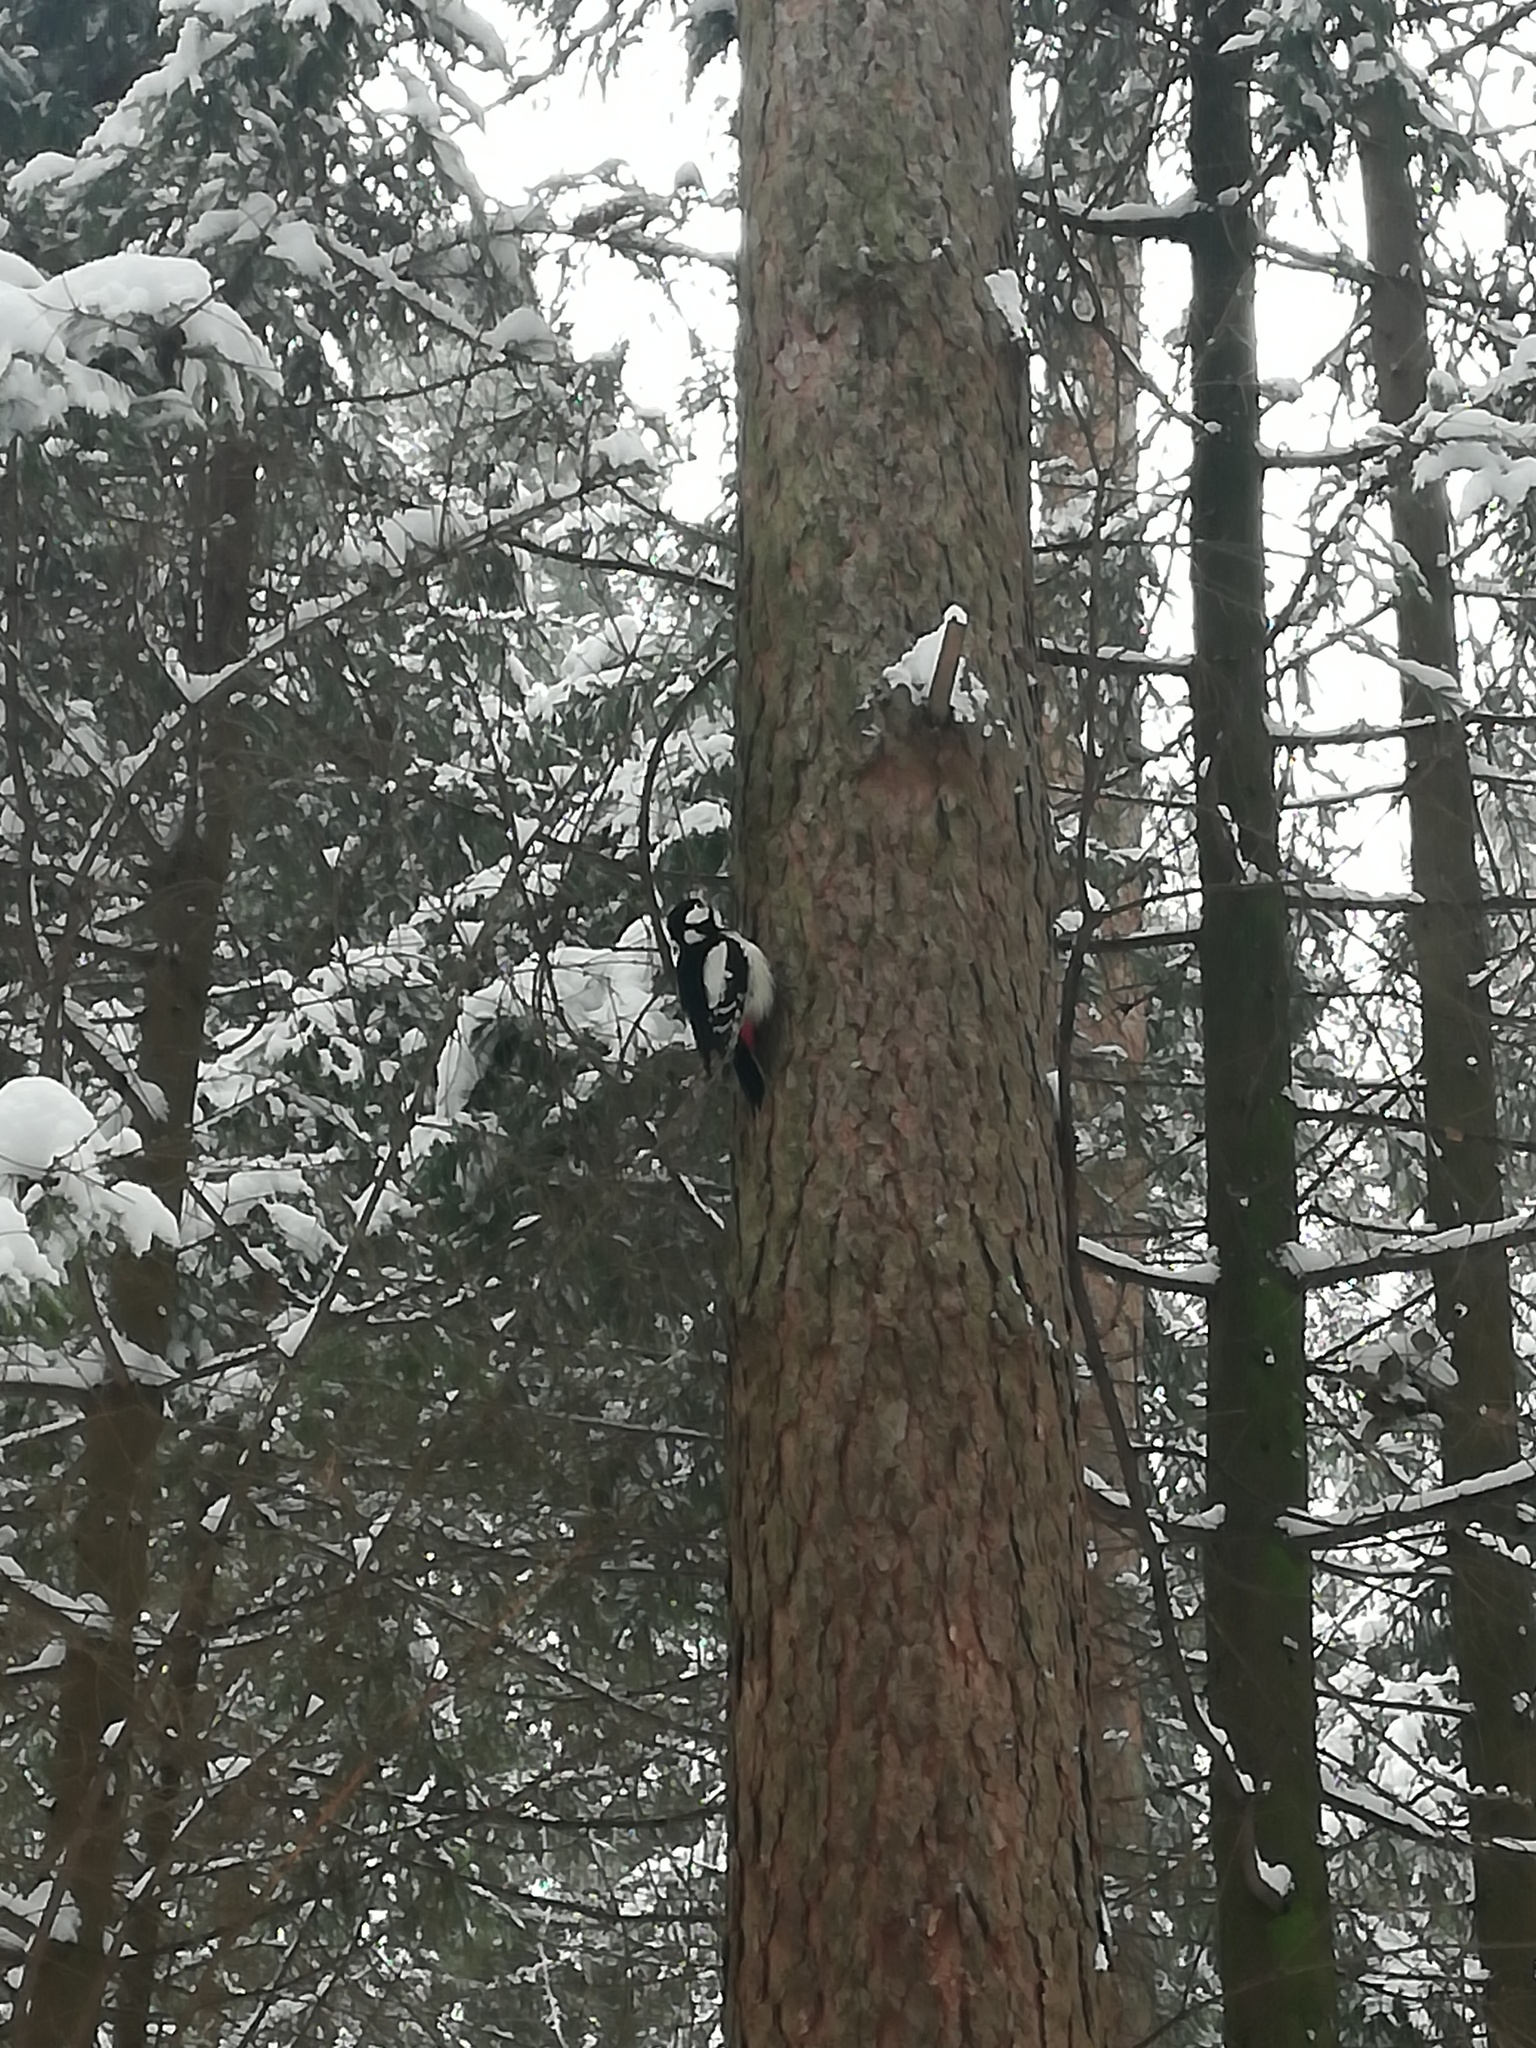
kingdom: Animalia
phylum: Chordata
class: Aves
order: Piciformes
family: Picidae
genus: Dendrocopos
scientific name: Dendrocopos major
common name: Great spotted woodpecker
